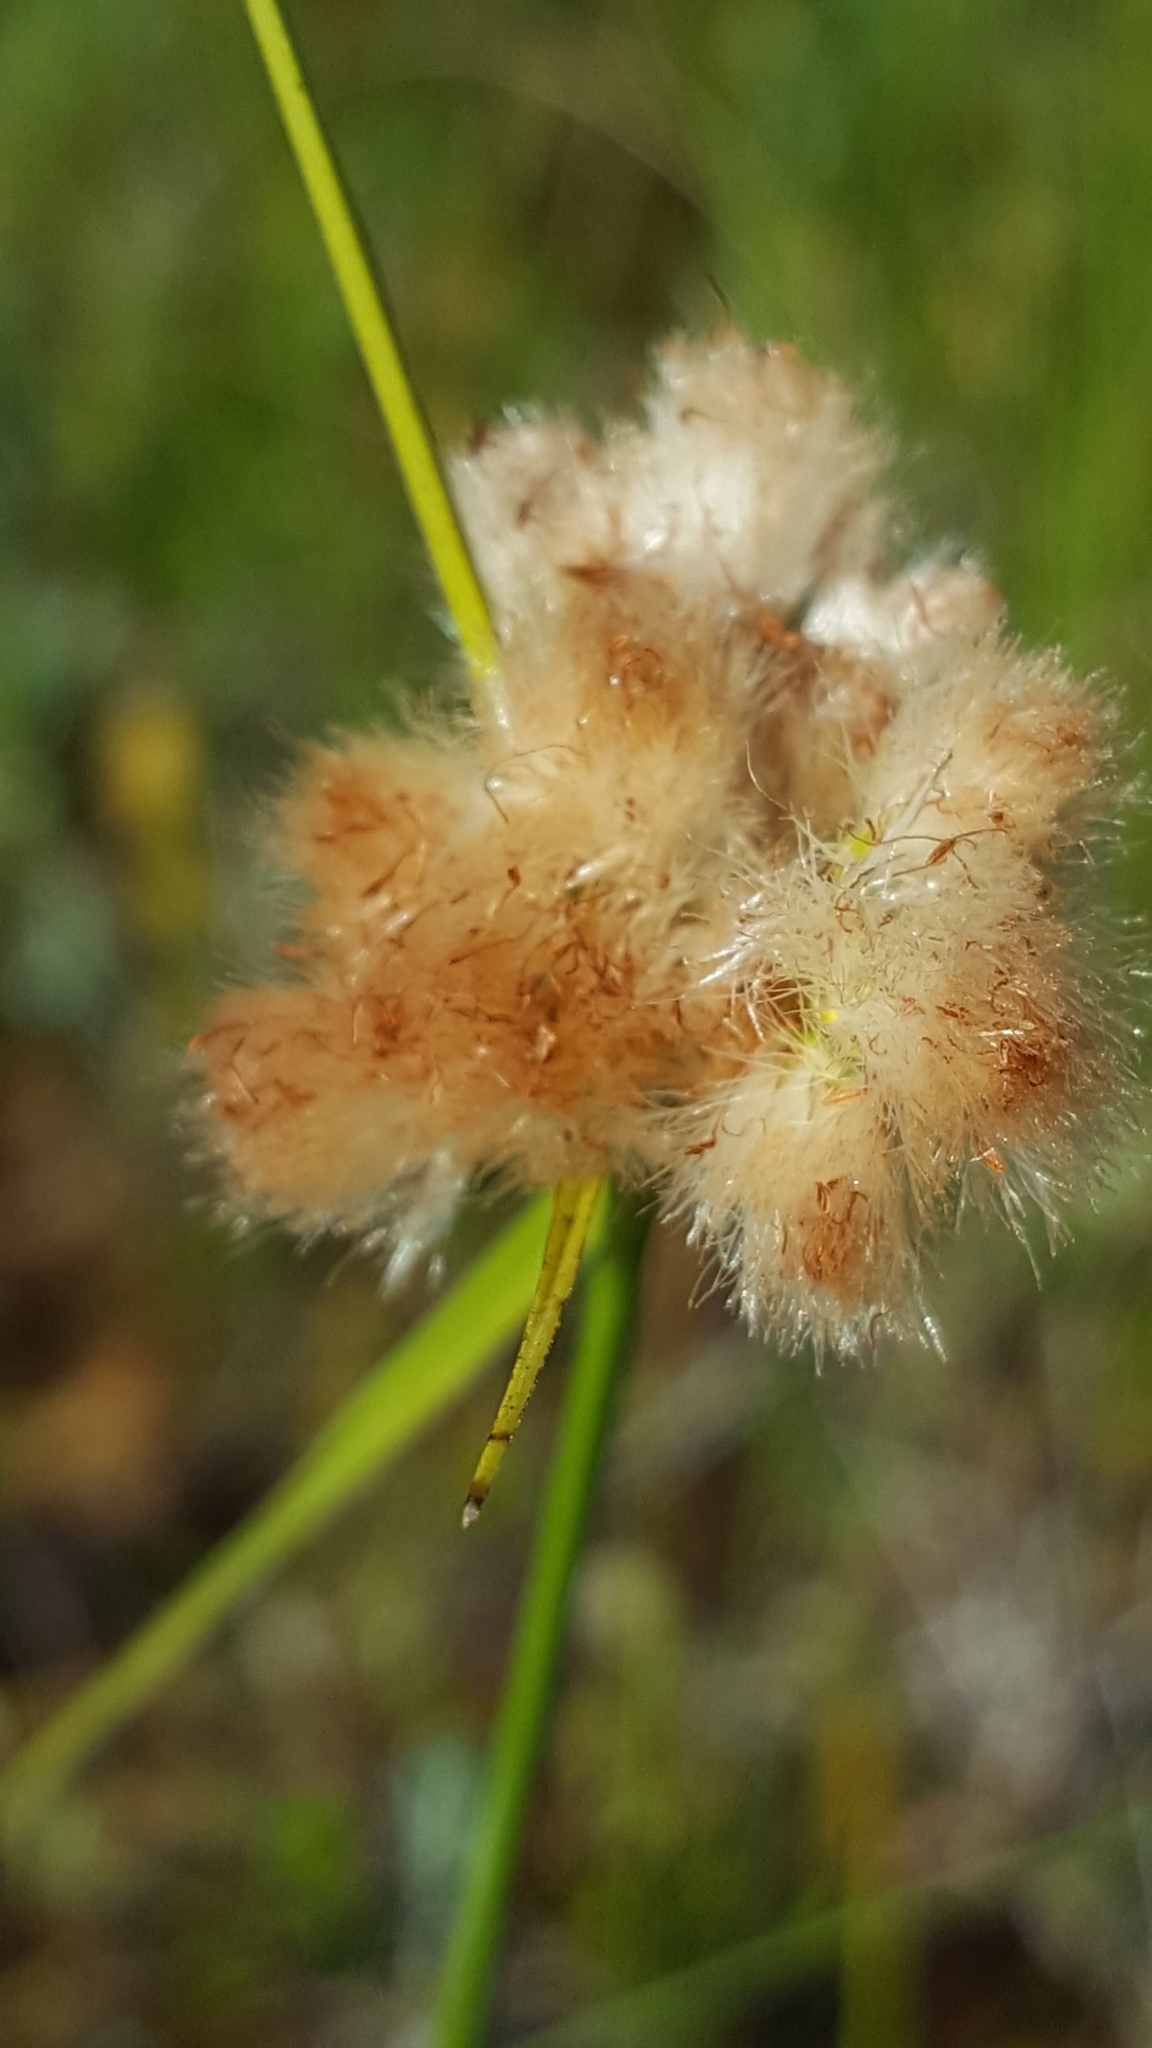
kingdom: Plantae
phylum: Tracheophyta
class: Liliopsida
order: Poales
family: Cyperaceae
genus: Eriophorum
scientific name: Eriophorum virginicum
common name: Tawny cottongrass
